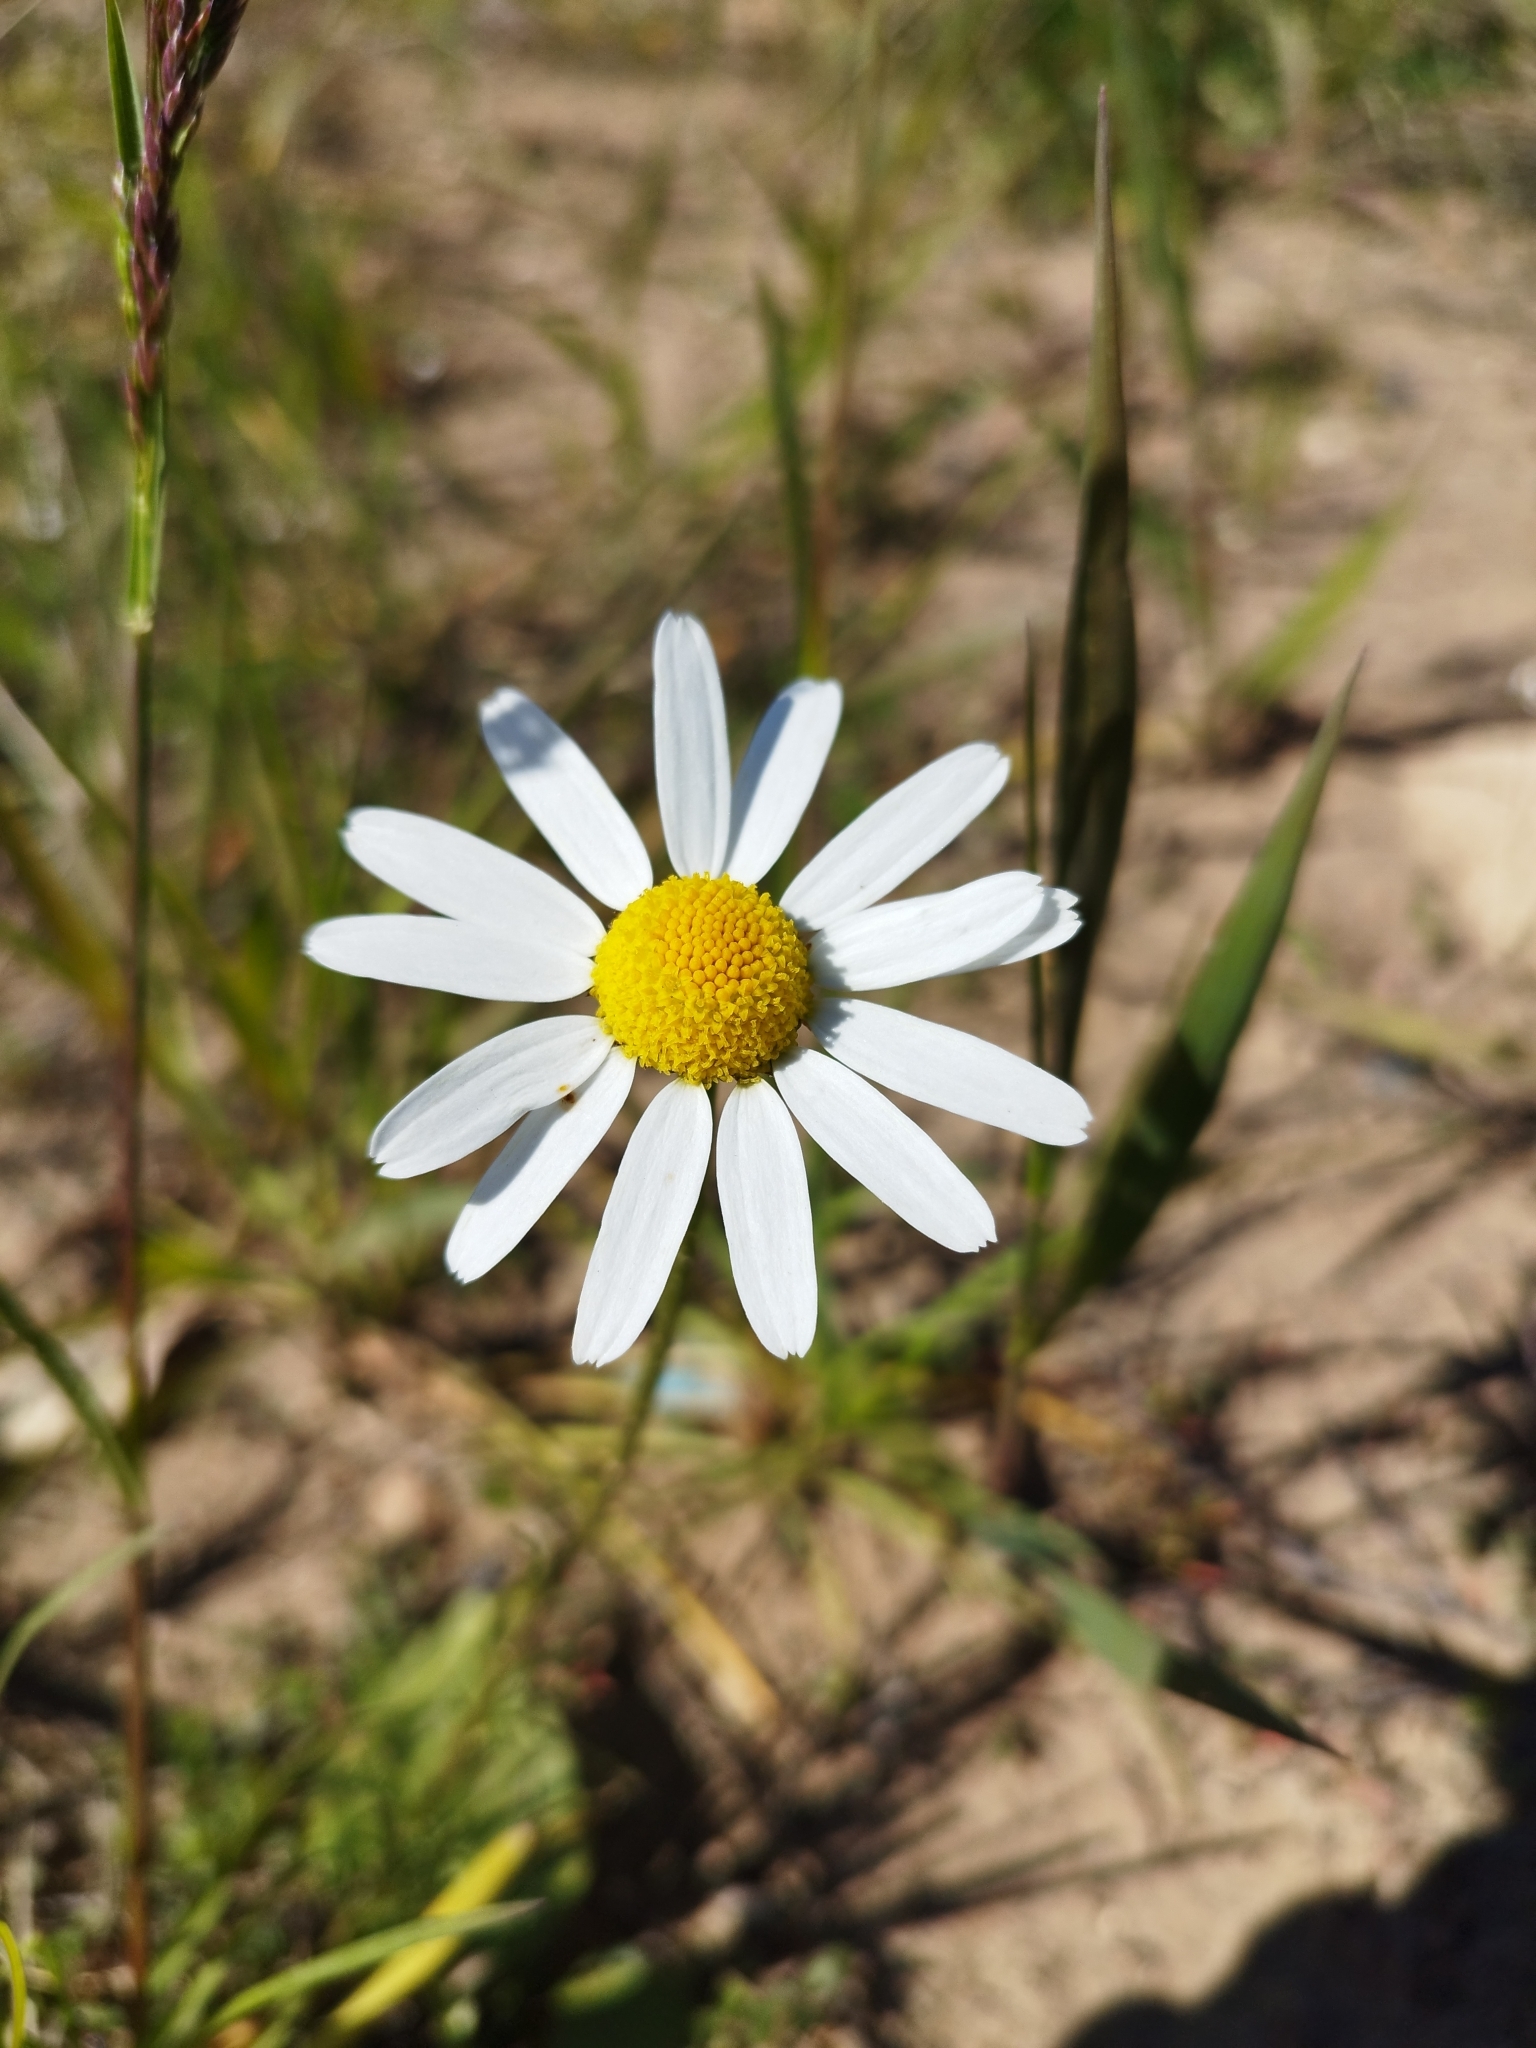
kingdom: Plantae
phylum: Tracheophyta
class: Magnoliopsida
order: Asterales
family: Asteraceae
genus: Tripleurospermum
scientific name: Tripleurospermum inodorum
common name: Scentless mayweed
